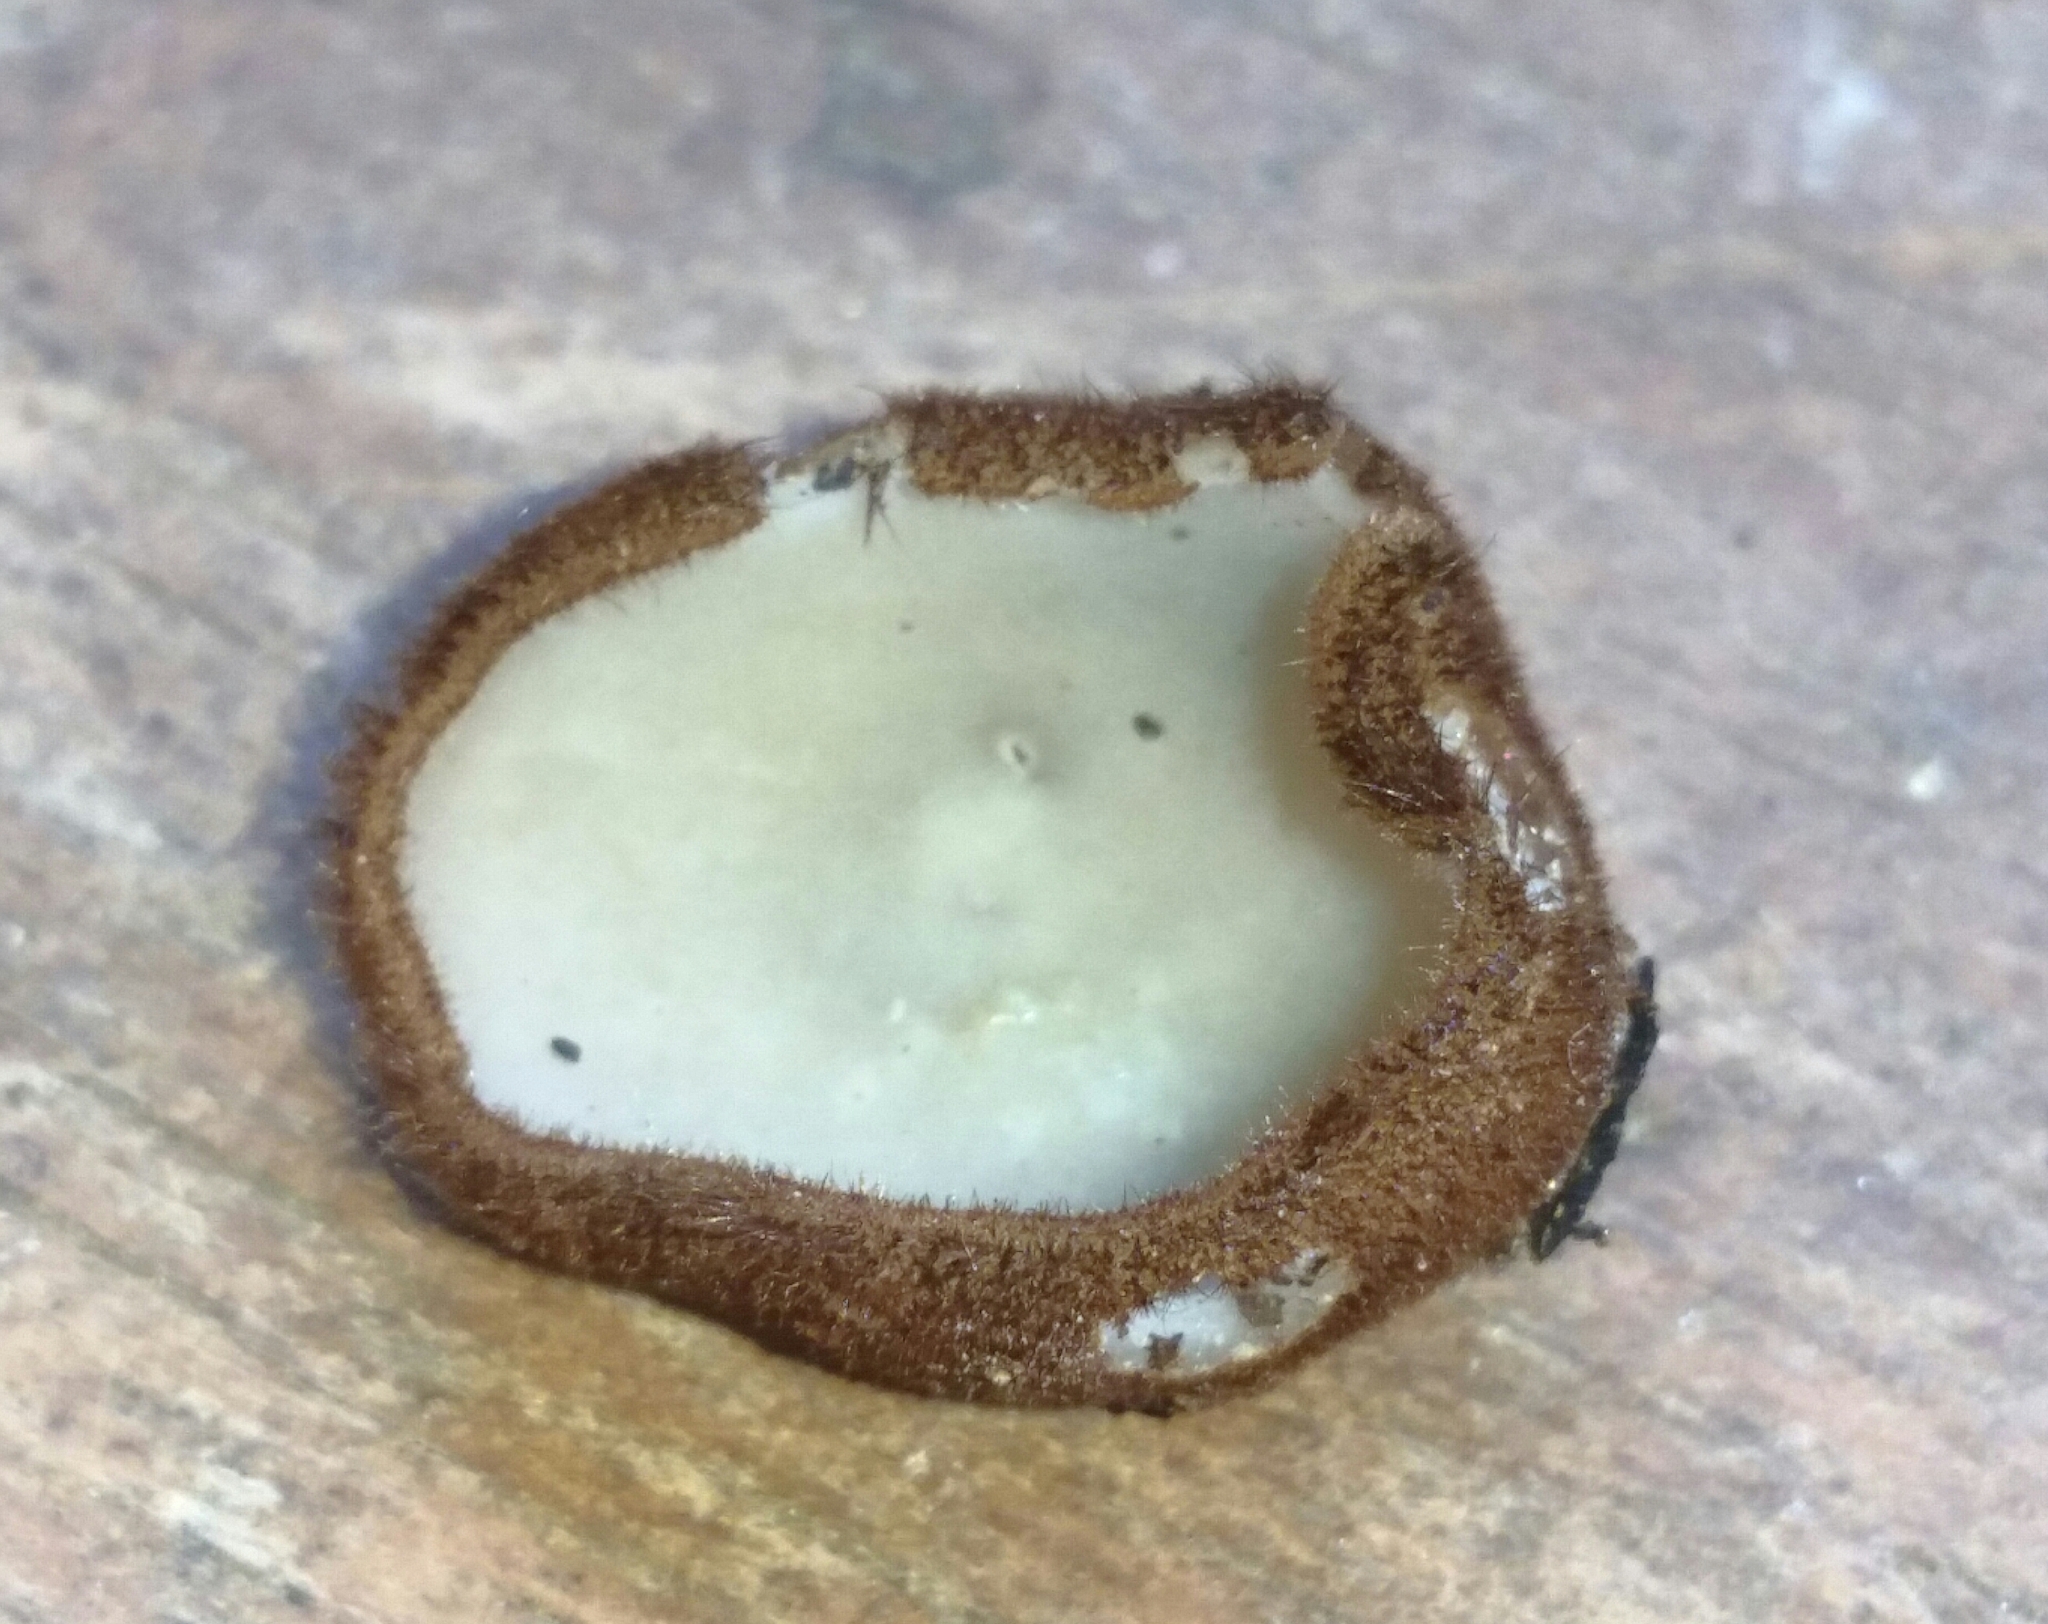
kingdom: Fungi
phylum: Ascomycota
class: Pezizomycetes
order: Pezizales
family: Pyronemataceae
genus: Humaria
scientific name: Humaria hemisphaerica
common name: Glazed cup
